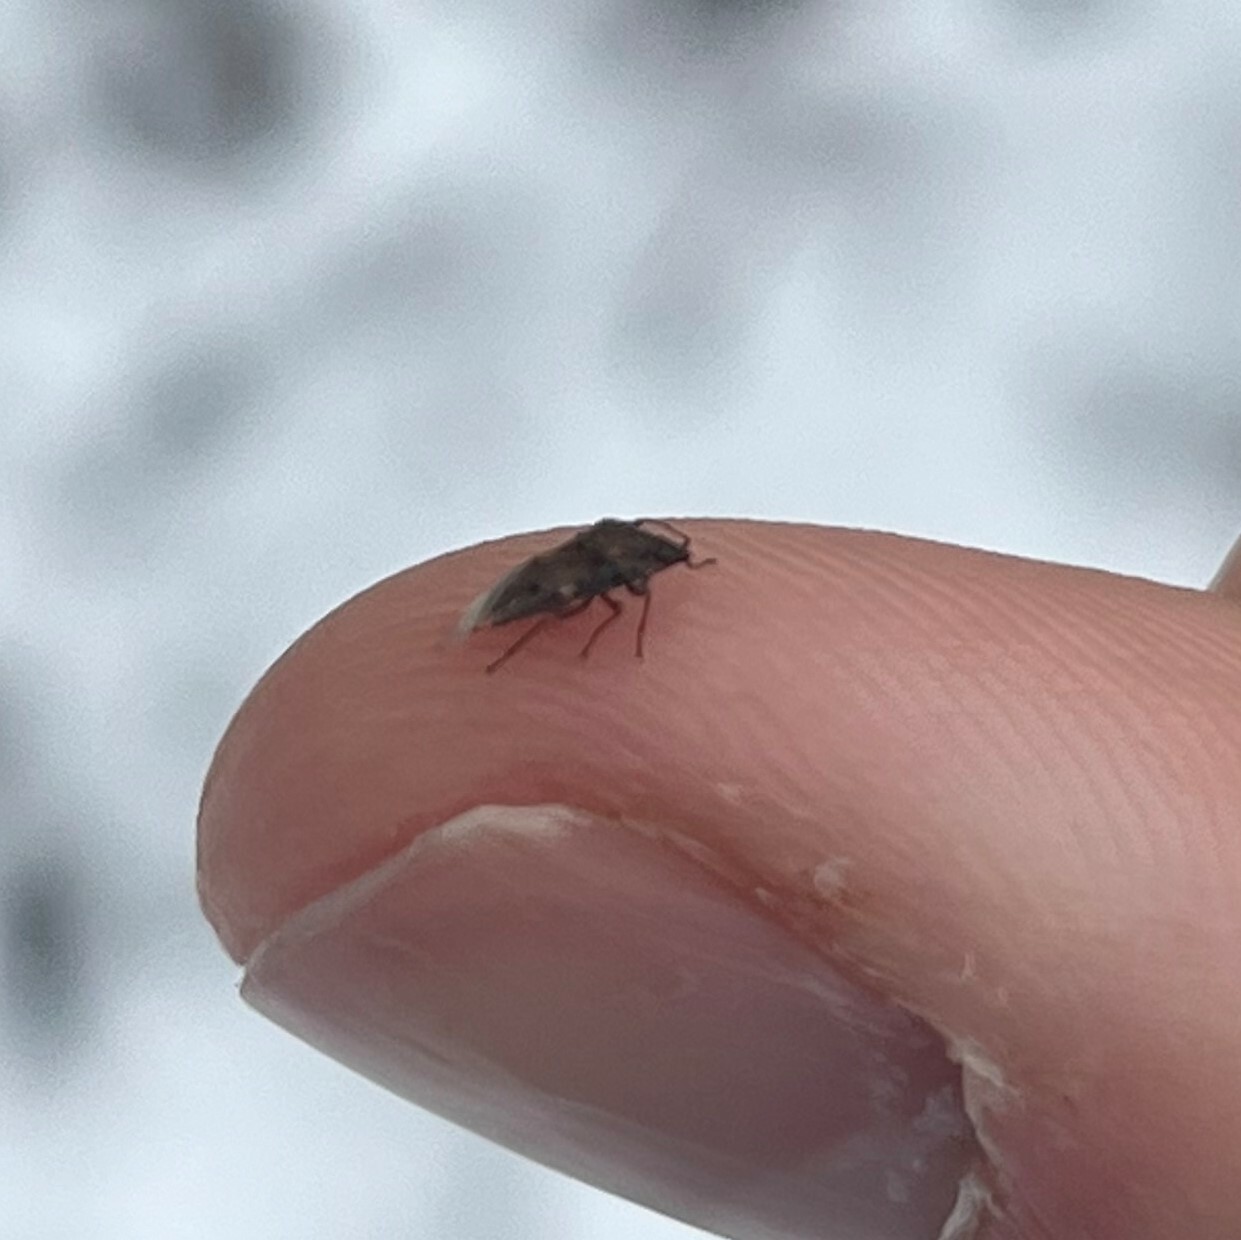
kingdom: Animalia
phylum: Arthropoda
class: Insecta
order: Hemiptera
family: Lygaeidae
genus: Kleidocerys
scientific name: Kleidocerys resedae
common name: Birch catkin bug
